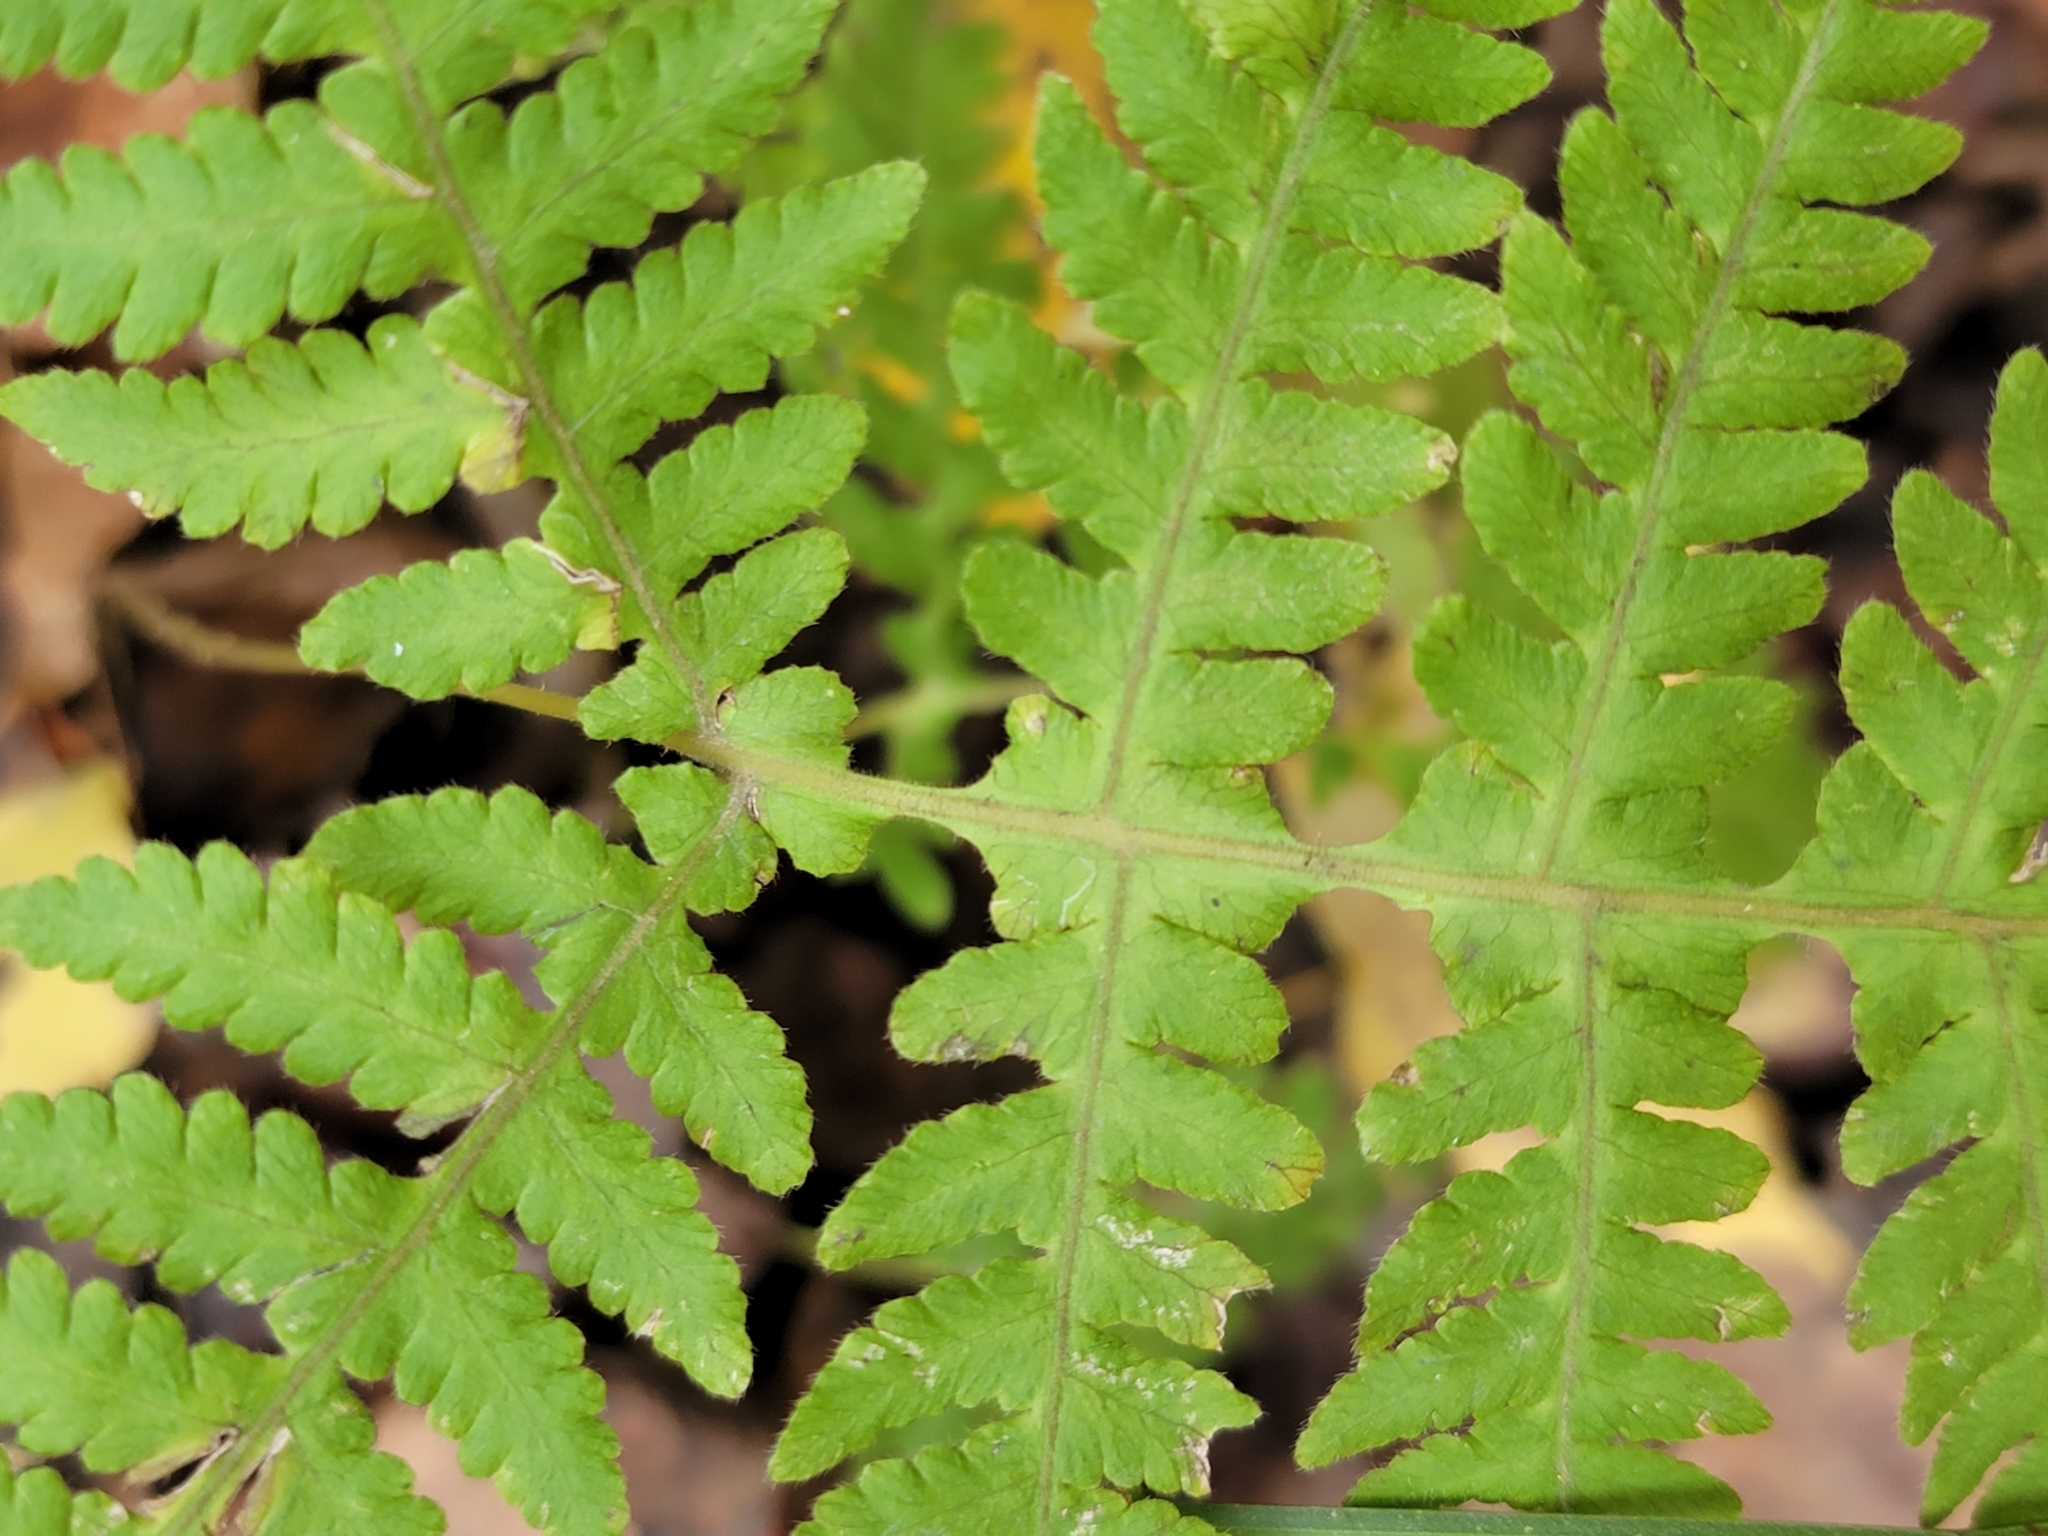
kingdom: Plantae
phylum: Tracheophyta
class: Polypodiopsida
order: Polypodiales
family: Thelypteridaceae
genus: Phegopteris
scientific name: Phegopteris hexagonoptera
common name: Broad beech fern
